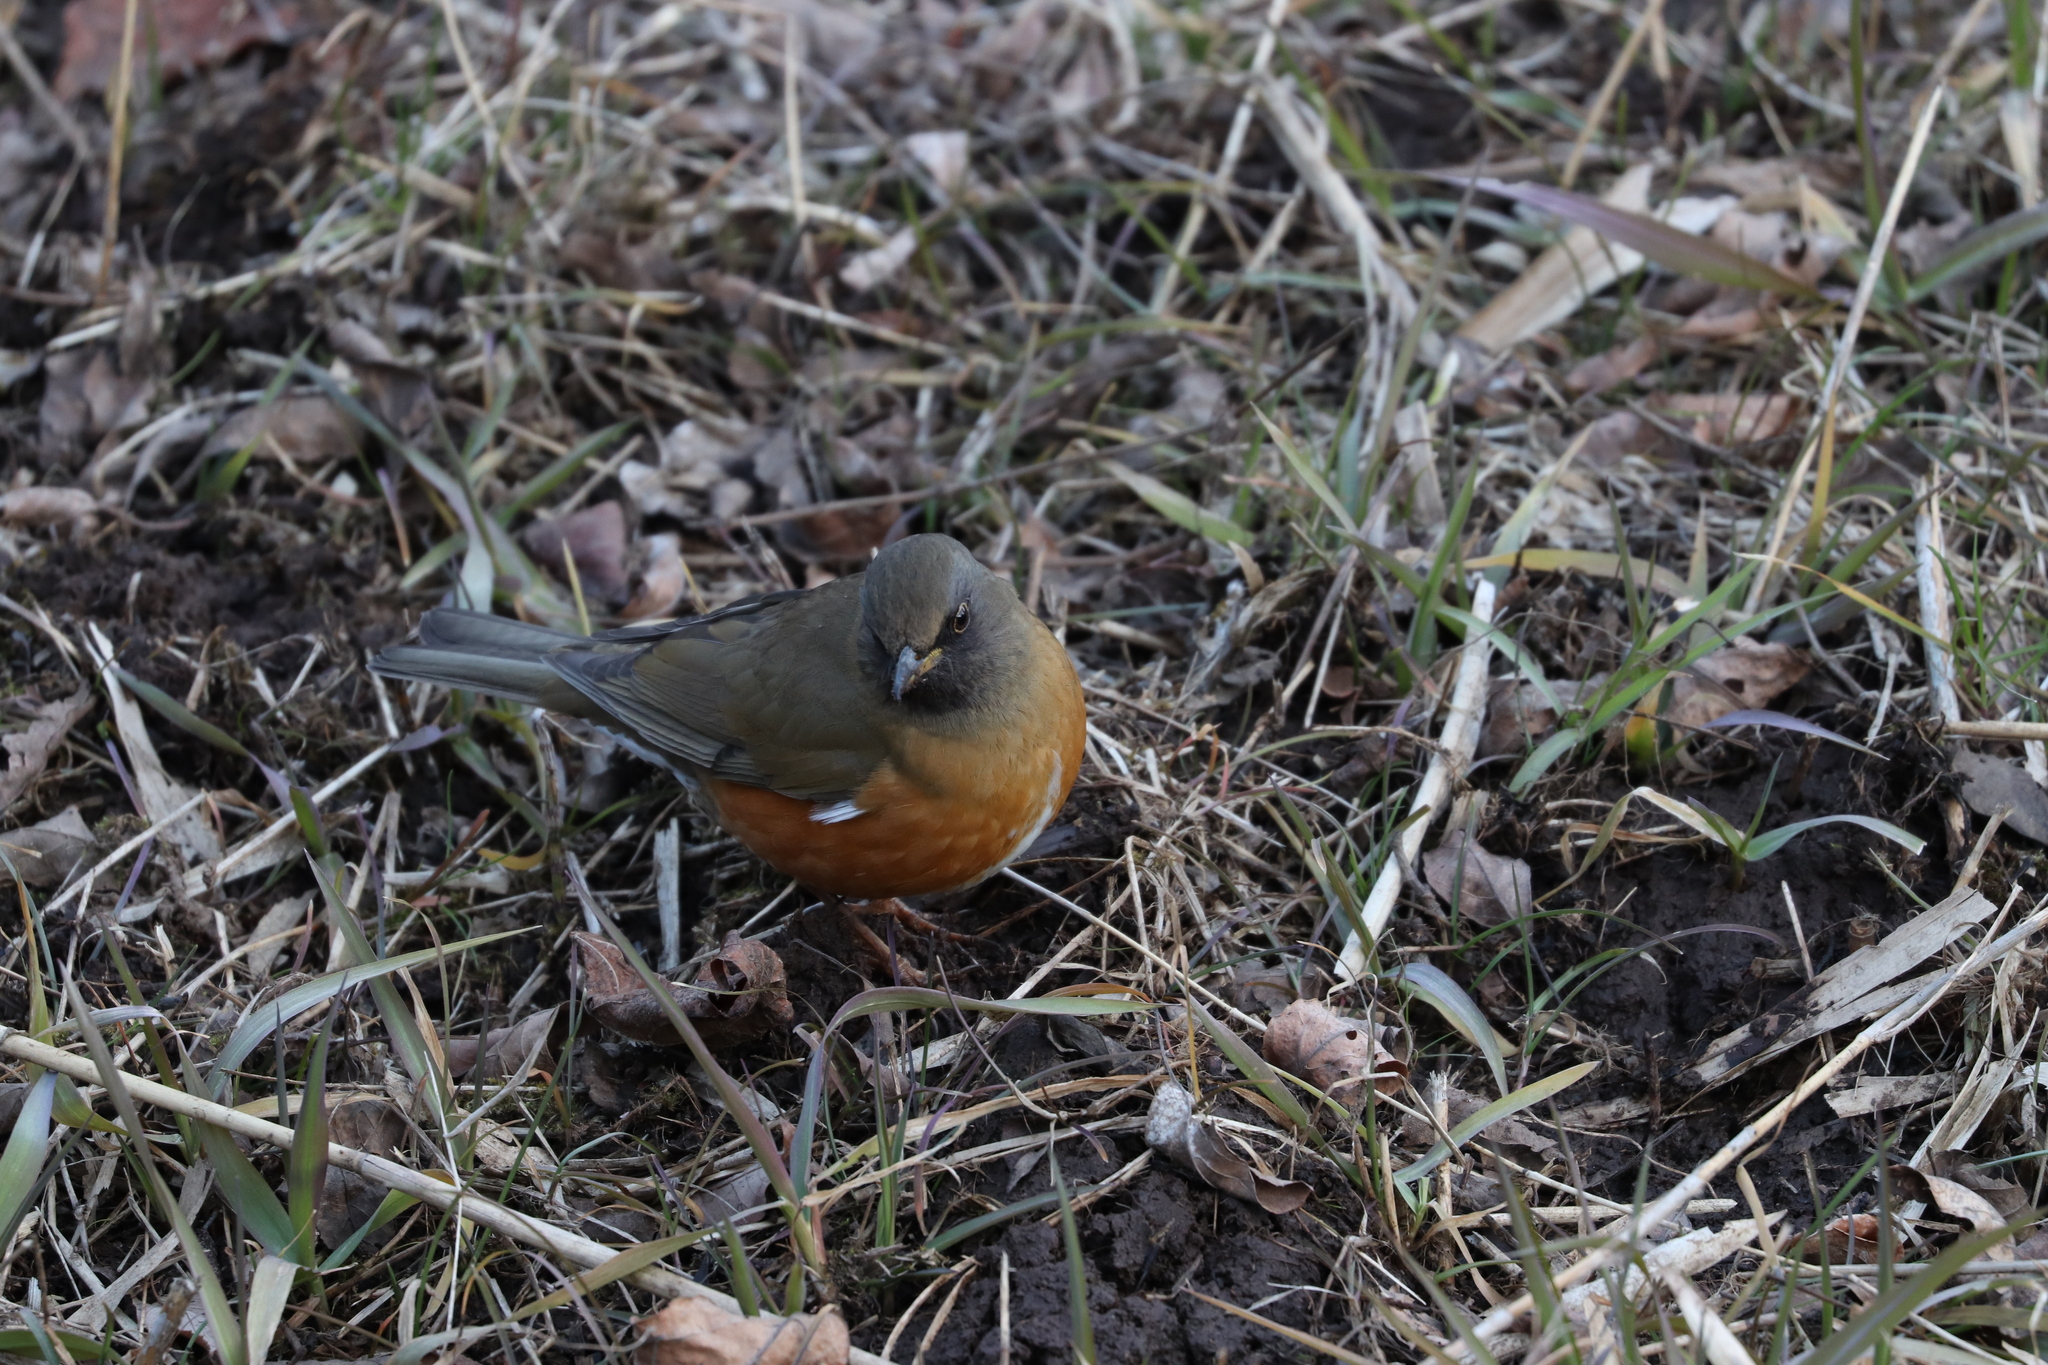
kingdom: Animalia
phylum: Chordata
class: Aves
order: Passeriformes
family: Turdidae
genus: Turdus
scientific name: Turdus chrysolaus
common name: Brown-headed thrush
